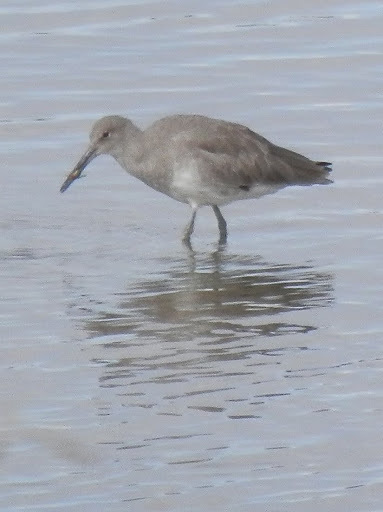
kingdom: Animalia
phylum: Chordata
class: Aves
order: Charadriiformes
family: Scolopacidae
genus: Tringa
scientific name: Tringa semipalmata
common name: Willet
